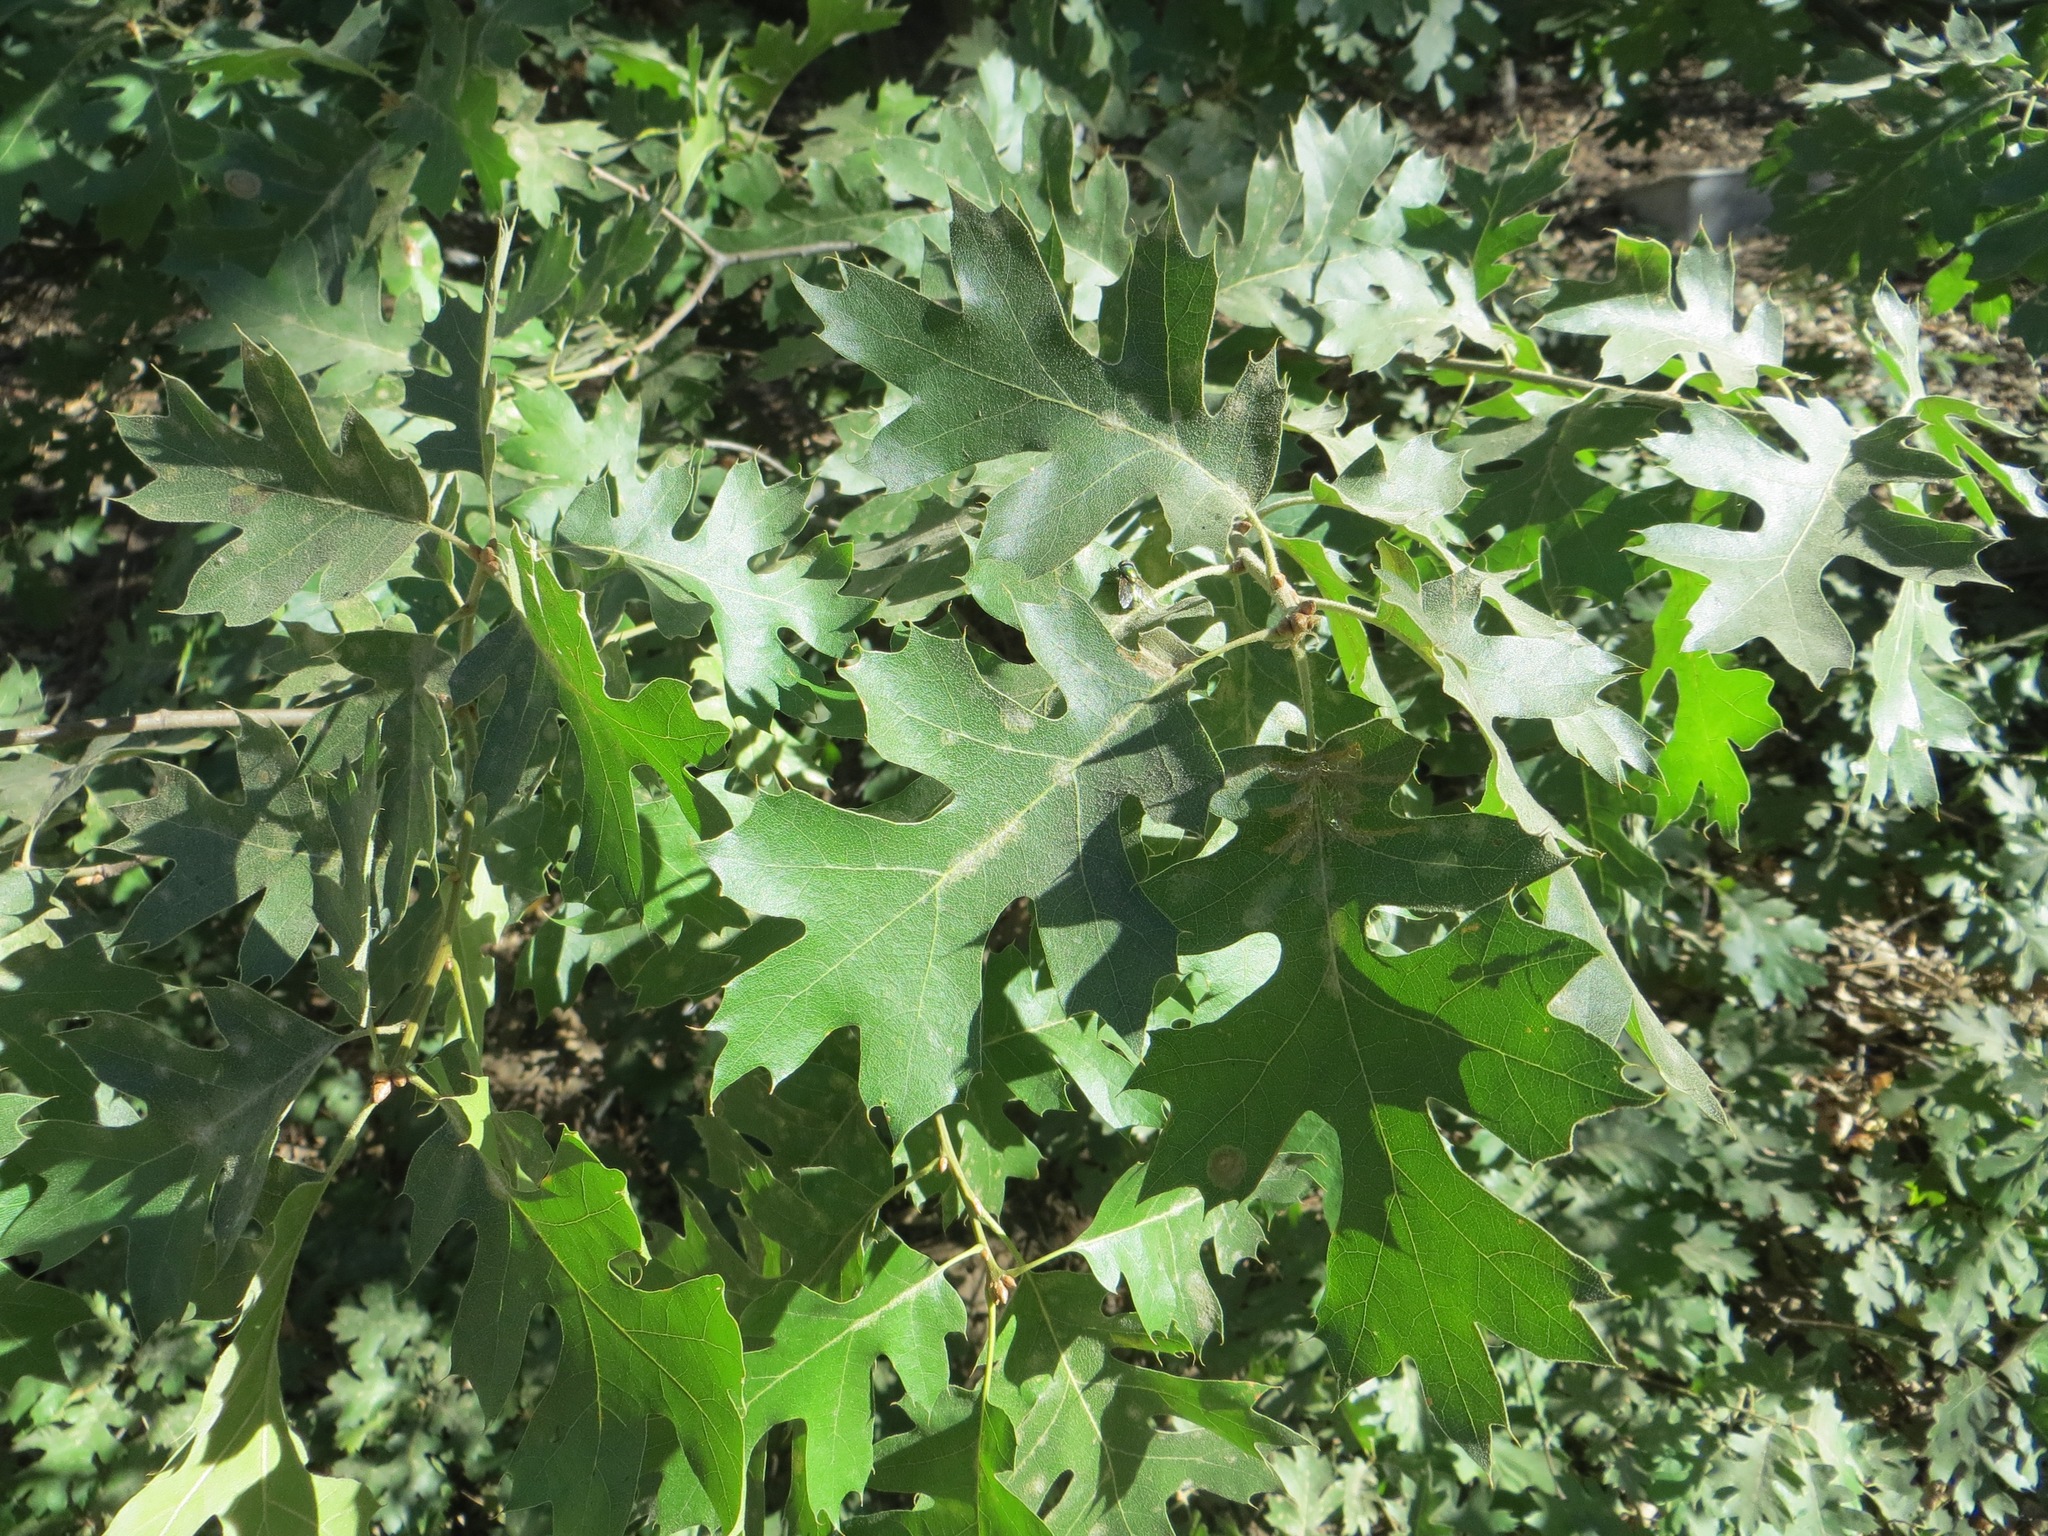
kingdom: Plantae
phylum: Tracheophyta
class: Magnoliopsida
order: Fagales
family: Fagaceae
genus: Quercus
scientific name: Quercus kelloggii
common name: California black oak
